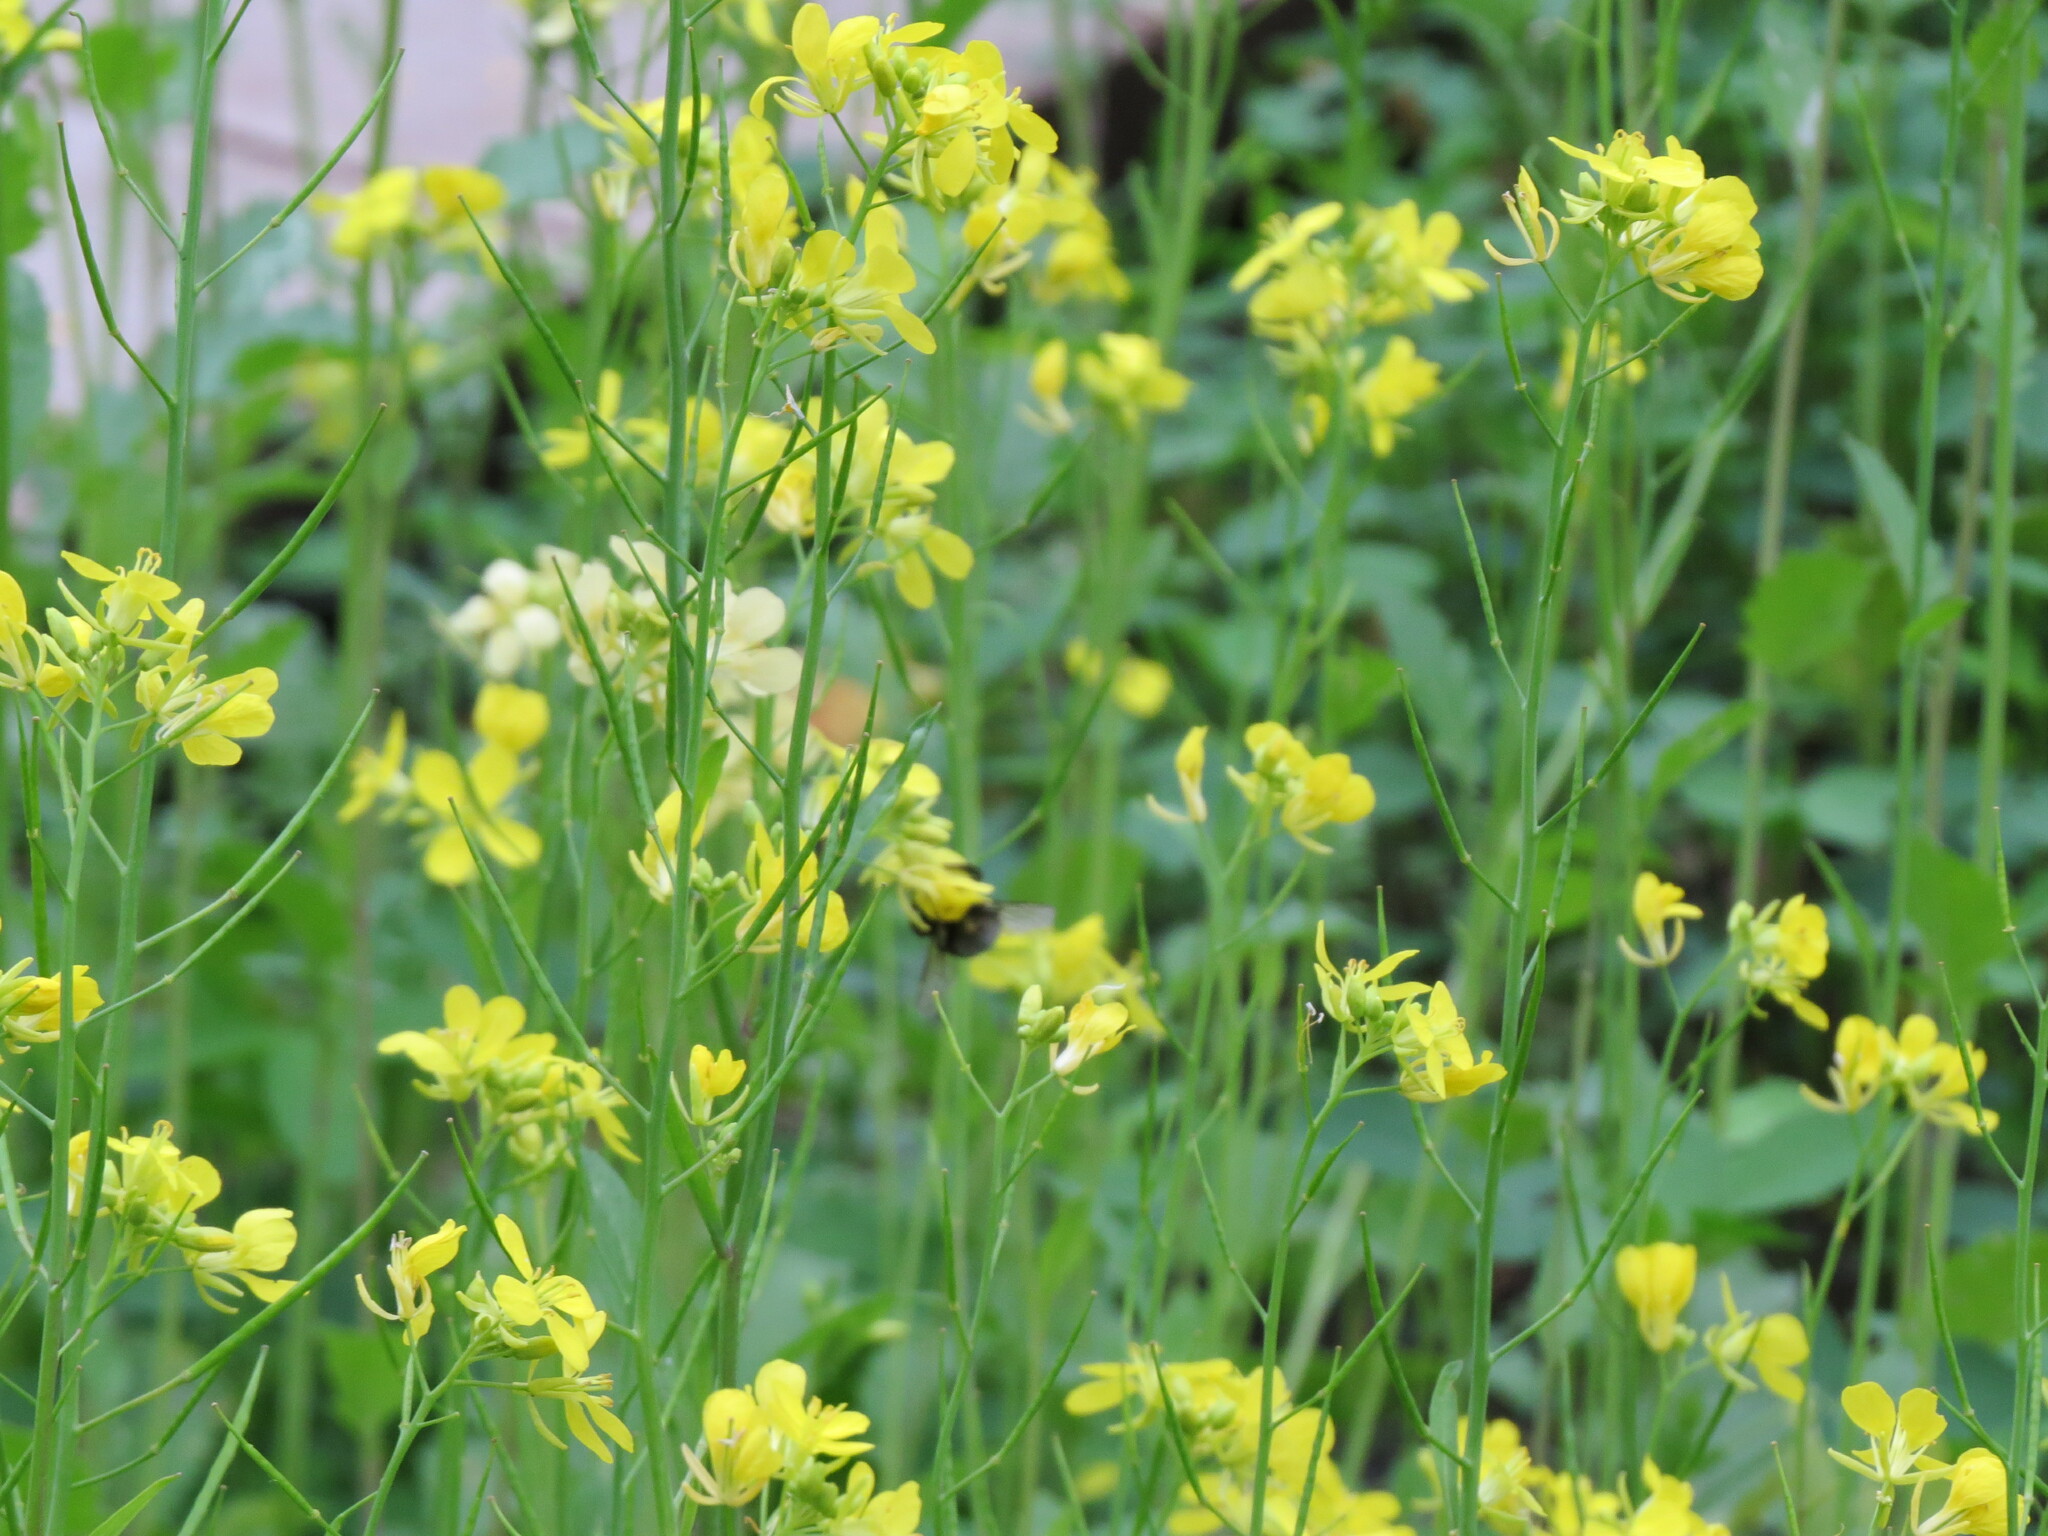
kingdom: Plantae
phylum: Tracheophyta
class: Magnoliopsida
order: Brassicales
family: Brassicaceae
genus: Brassica
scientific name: Brassica juncea
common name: Brown mustard
